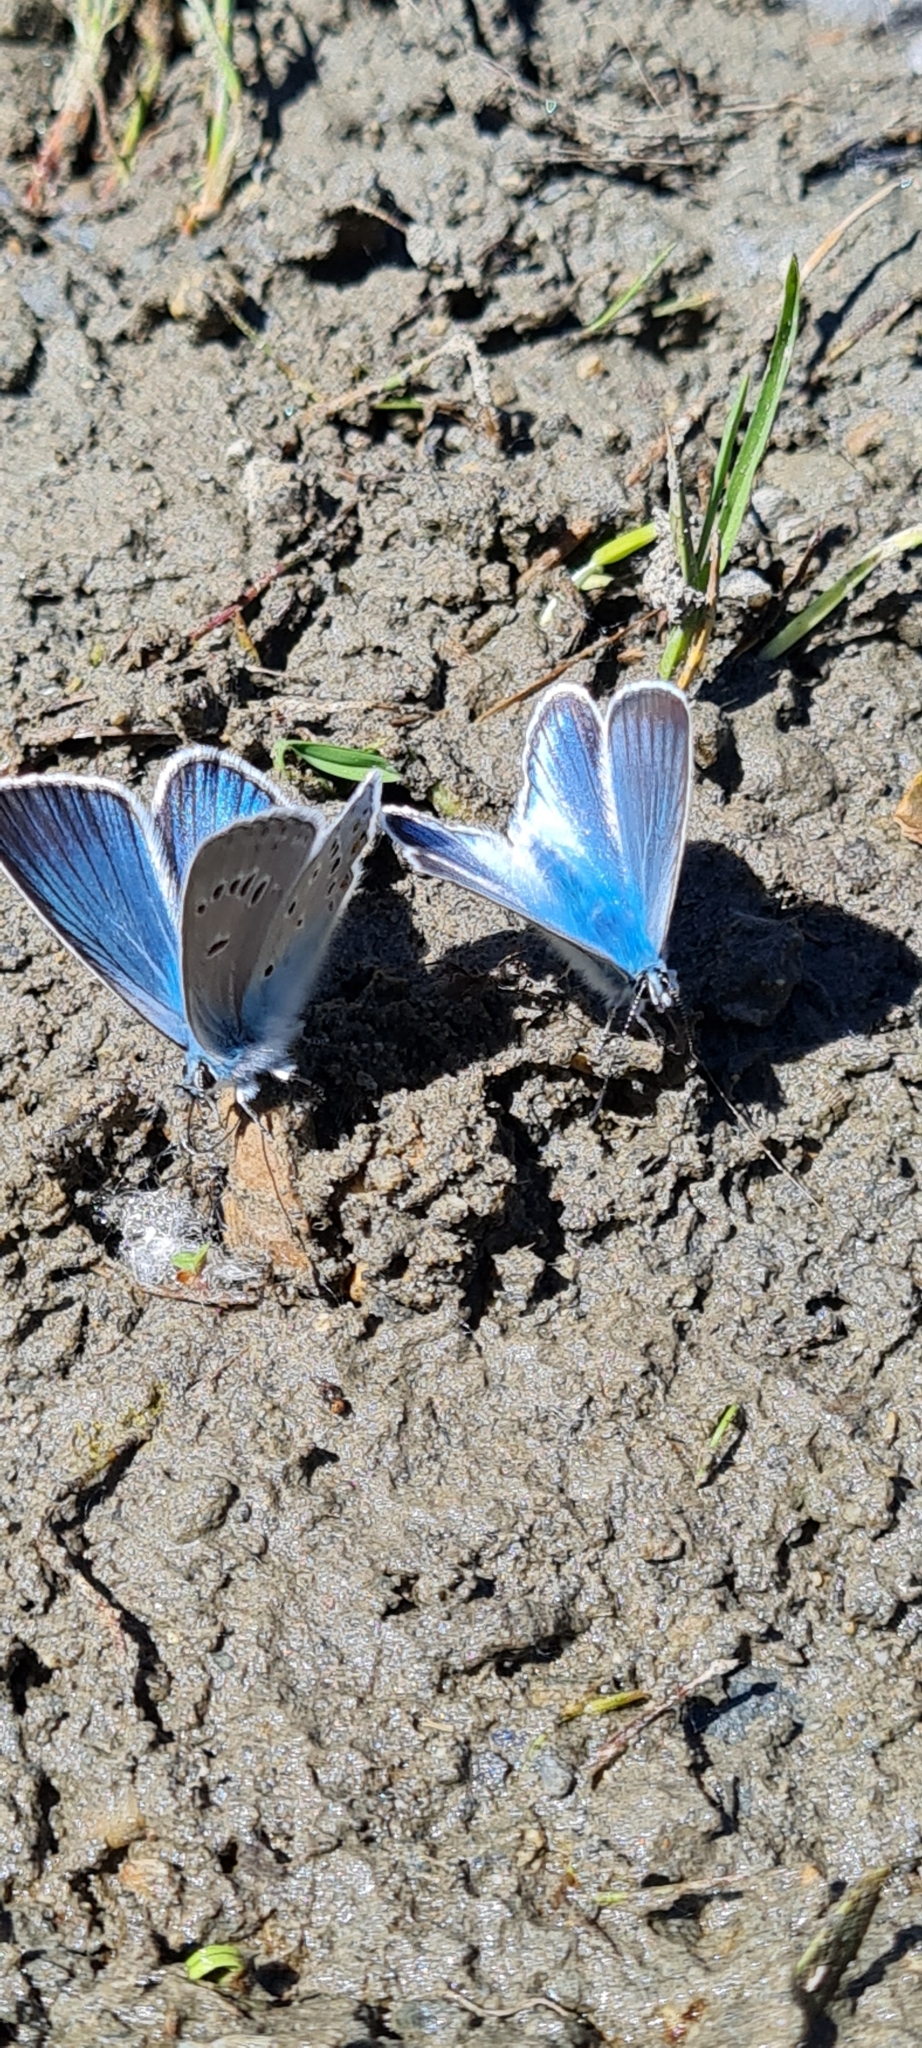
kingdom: Animalia
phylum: Arthropoda
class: Insecta
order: Lepidoptera
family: Lycaenidae
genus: Plebejus
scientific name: Plebejus amanda
